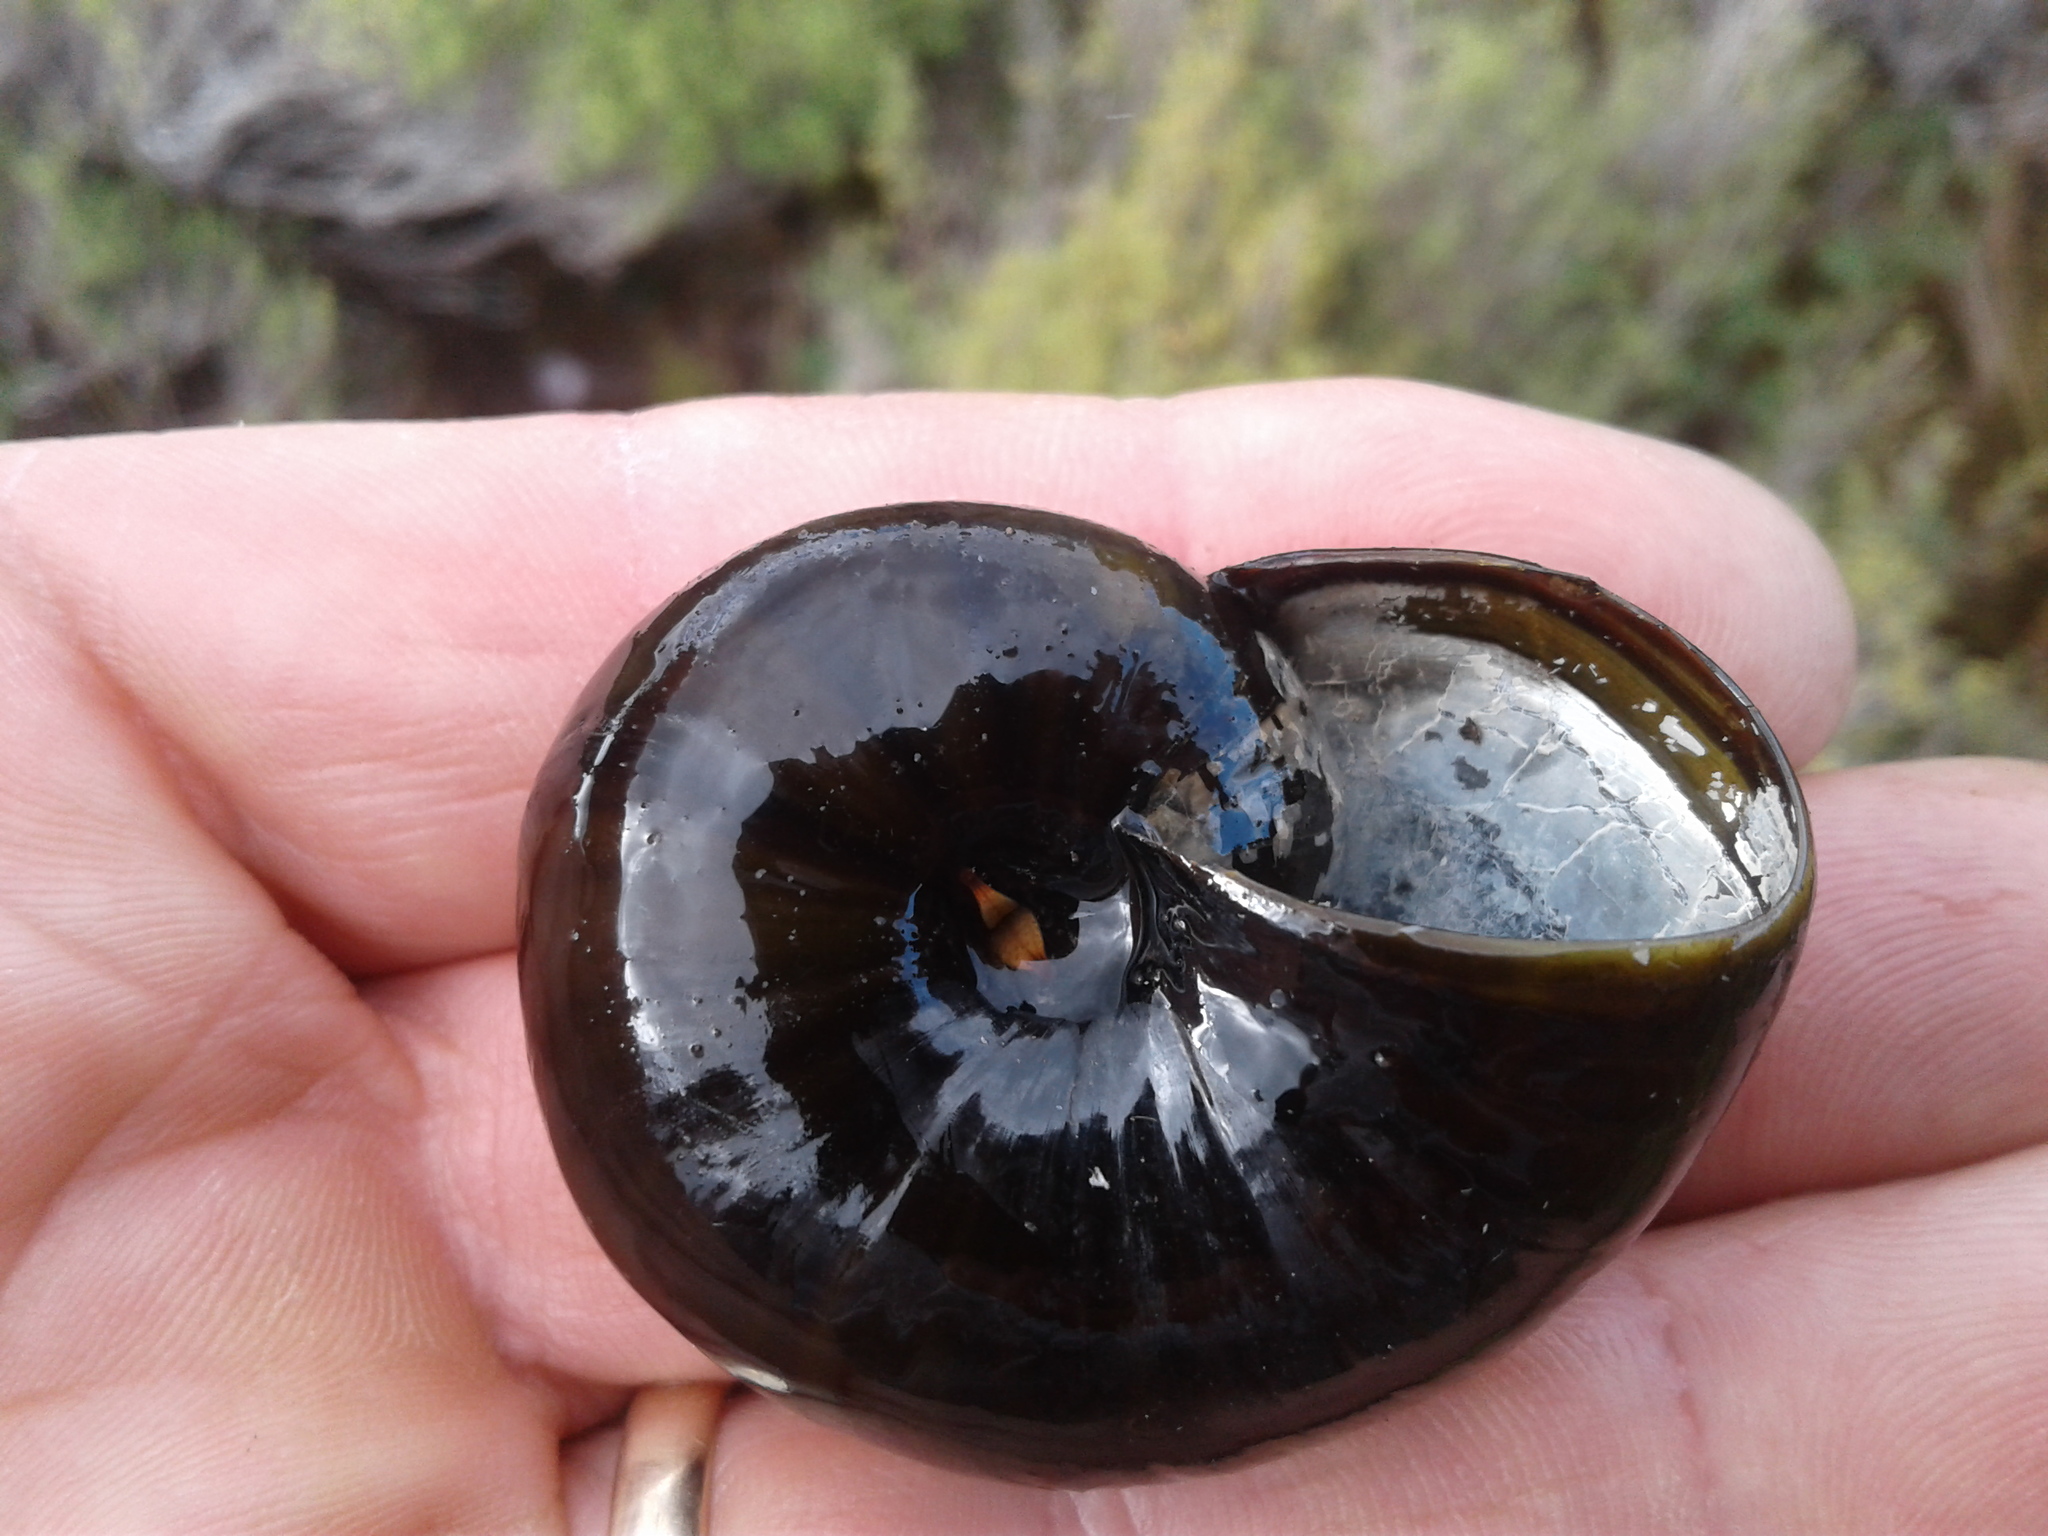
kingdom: Animalia
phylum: Mollusca
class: Gastropoda
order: Stylommatophora
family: Rhytididae
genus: Powelliphanta
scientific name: Powelliphanta patrickensis
